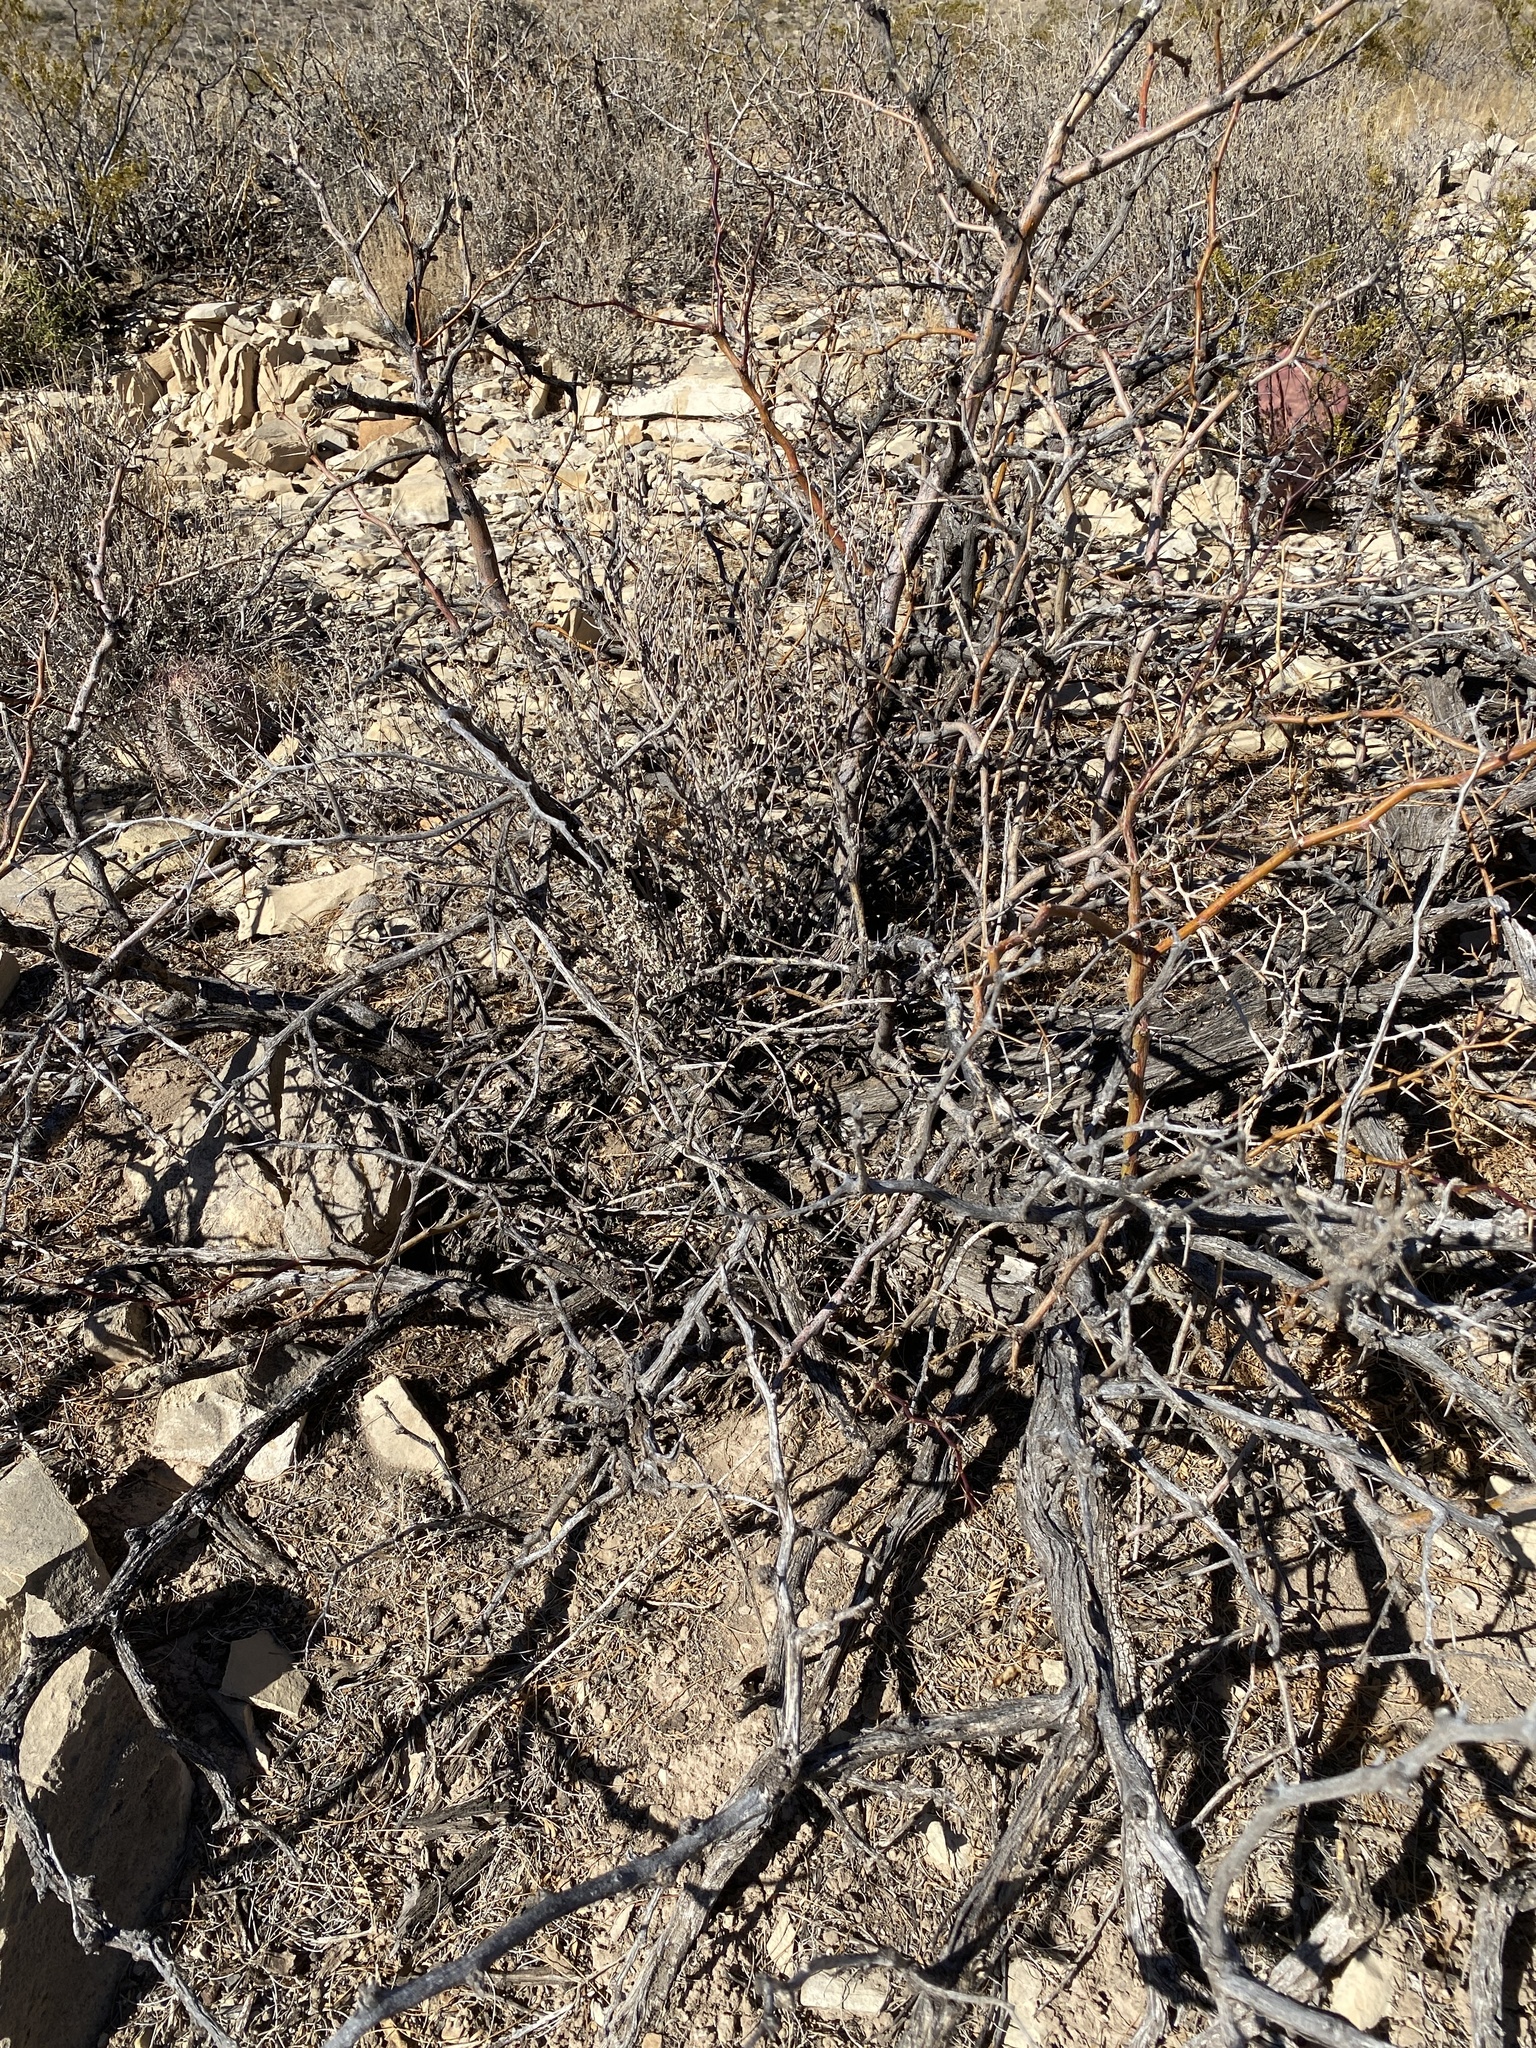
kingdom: Plantae
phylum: Tracheophyta
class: Magnoliopsida
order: Fabales
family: Fabaceae
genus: Prosopis
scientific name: Prosopis glandulosa
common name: Honey mesquite
